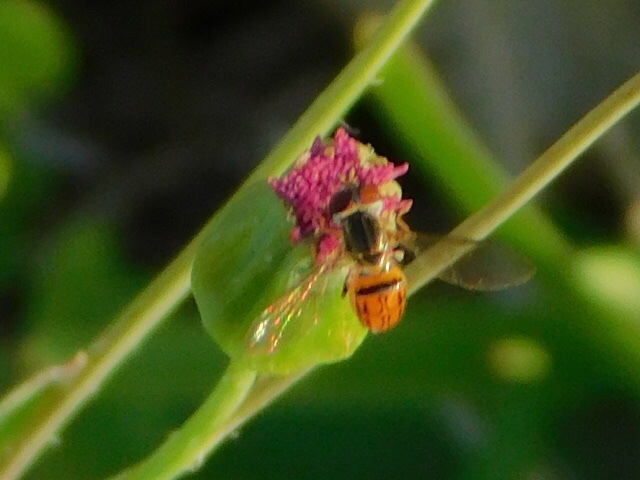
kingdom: Animalia
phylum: Arthropoda
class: Insecta
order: Diptera
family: Syrphidae
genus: Toxomerus
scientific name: Toxomerus boscii
